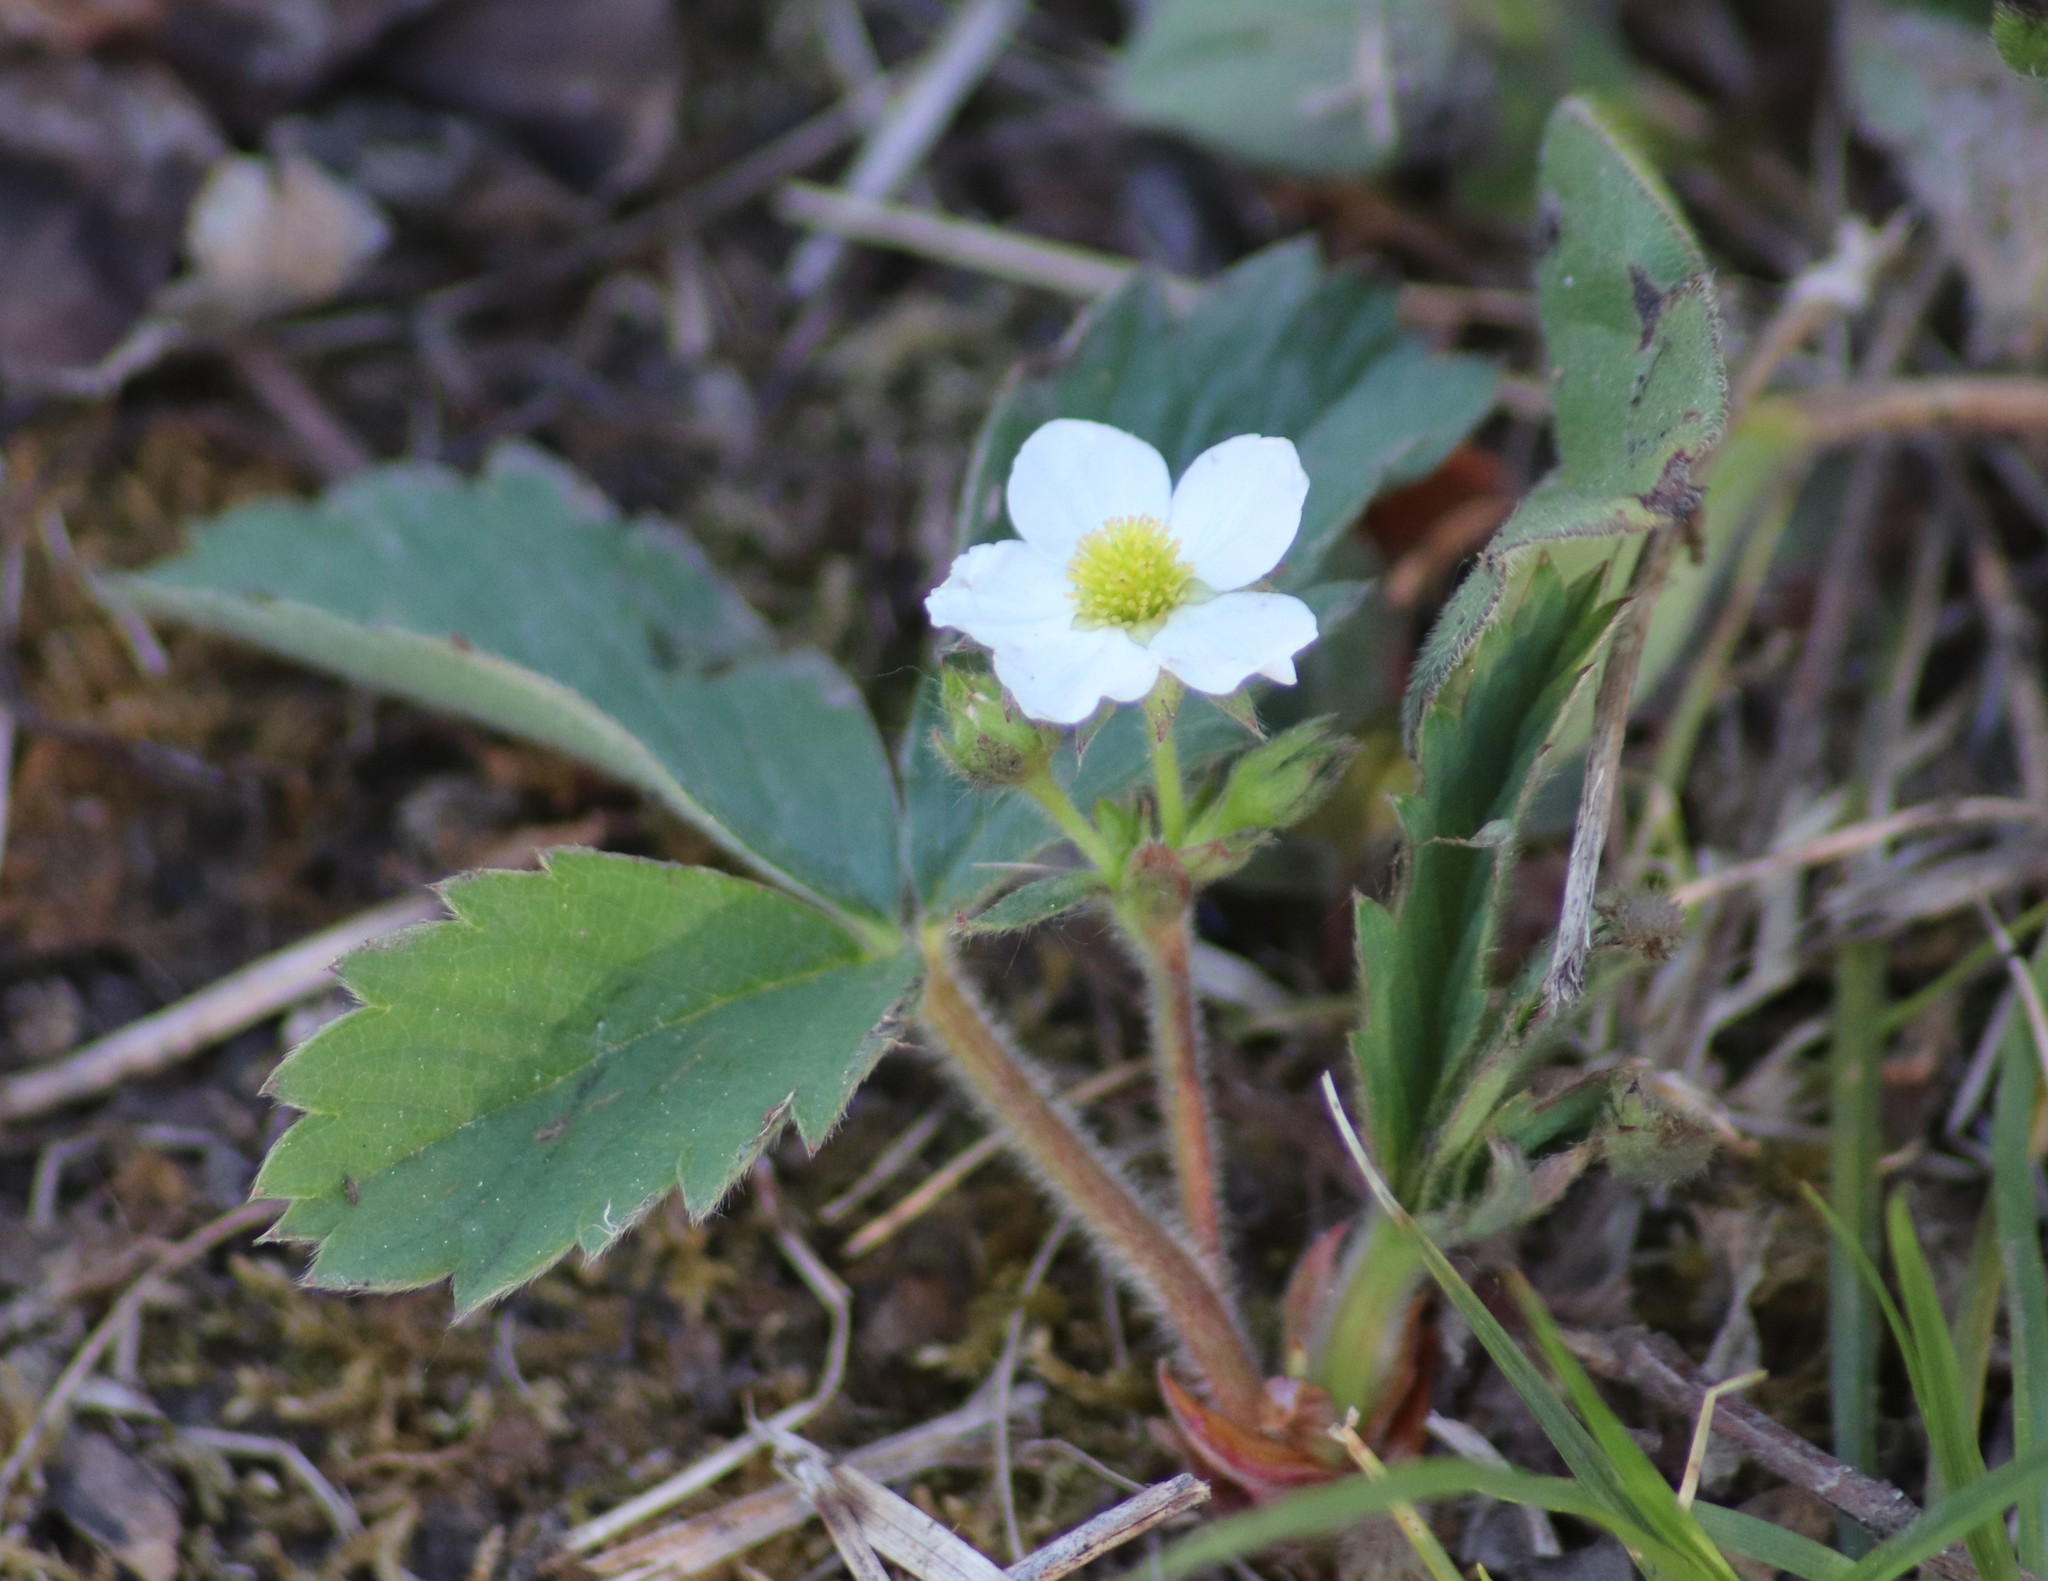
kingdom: Plantae
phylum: Tracheophyta
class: Magnoliopsida
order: Rosales
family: Rosaceae
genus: Fragaria
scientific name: Fragaria virginiana
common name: Thickleaved wild strawberry
